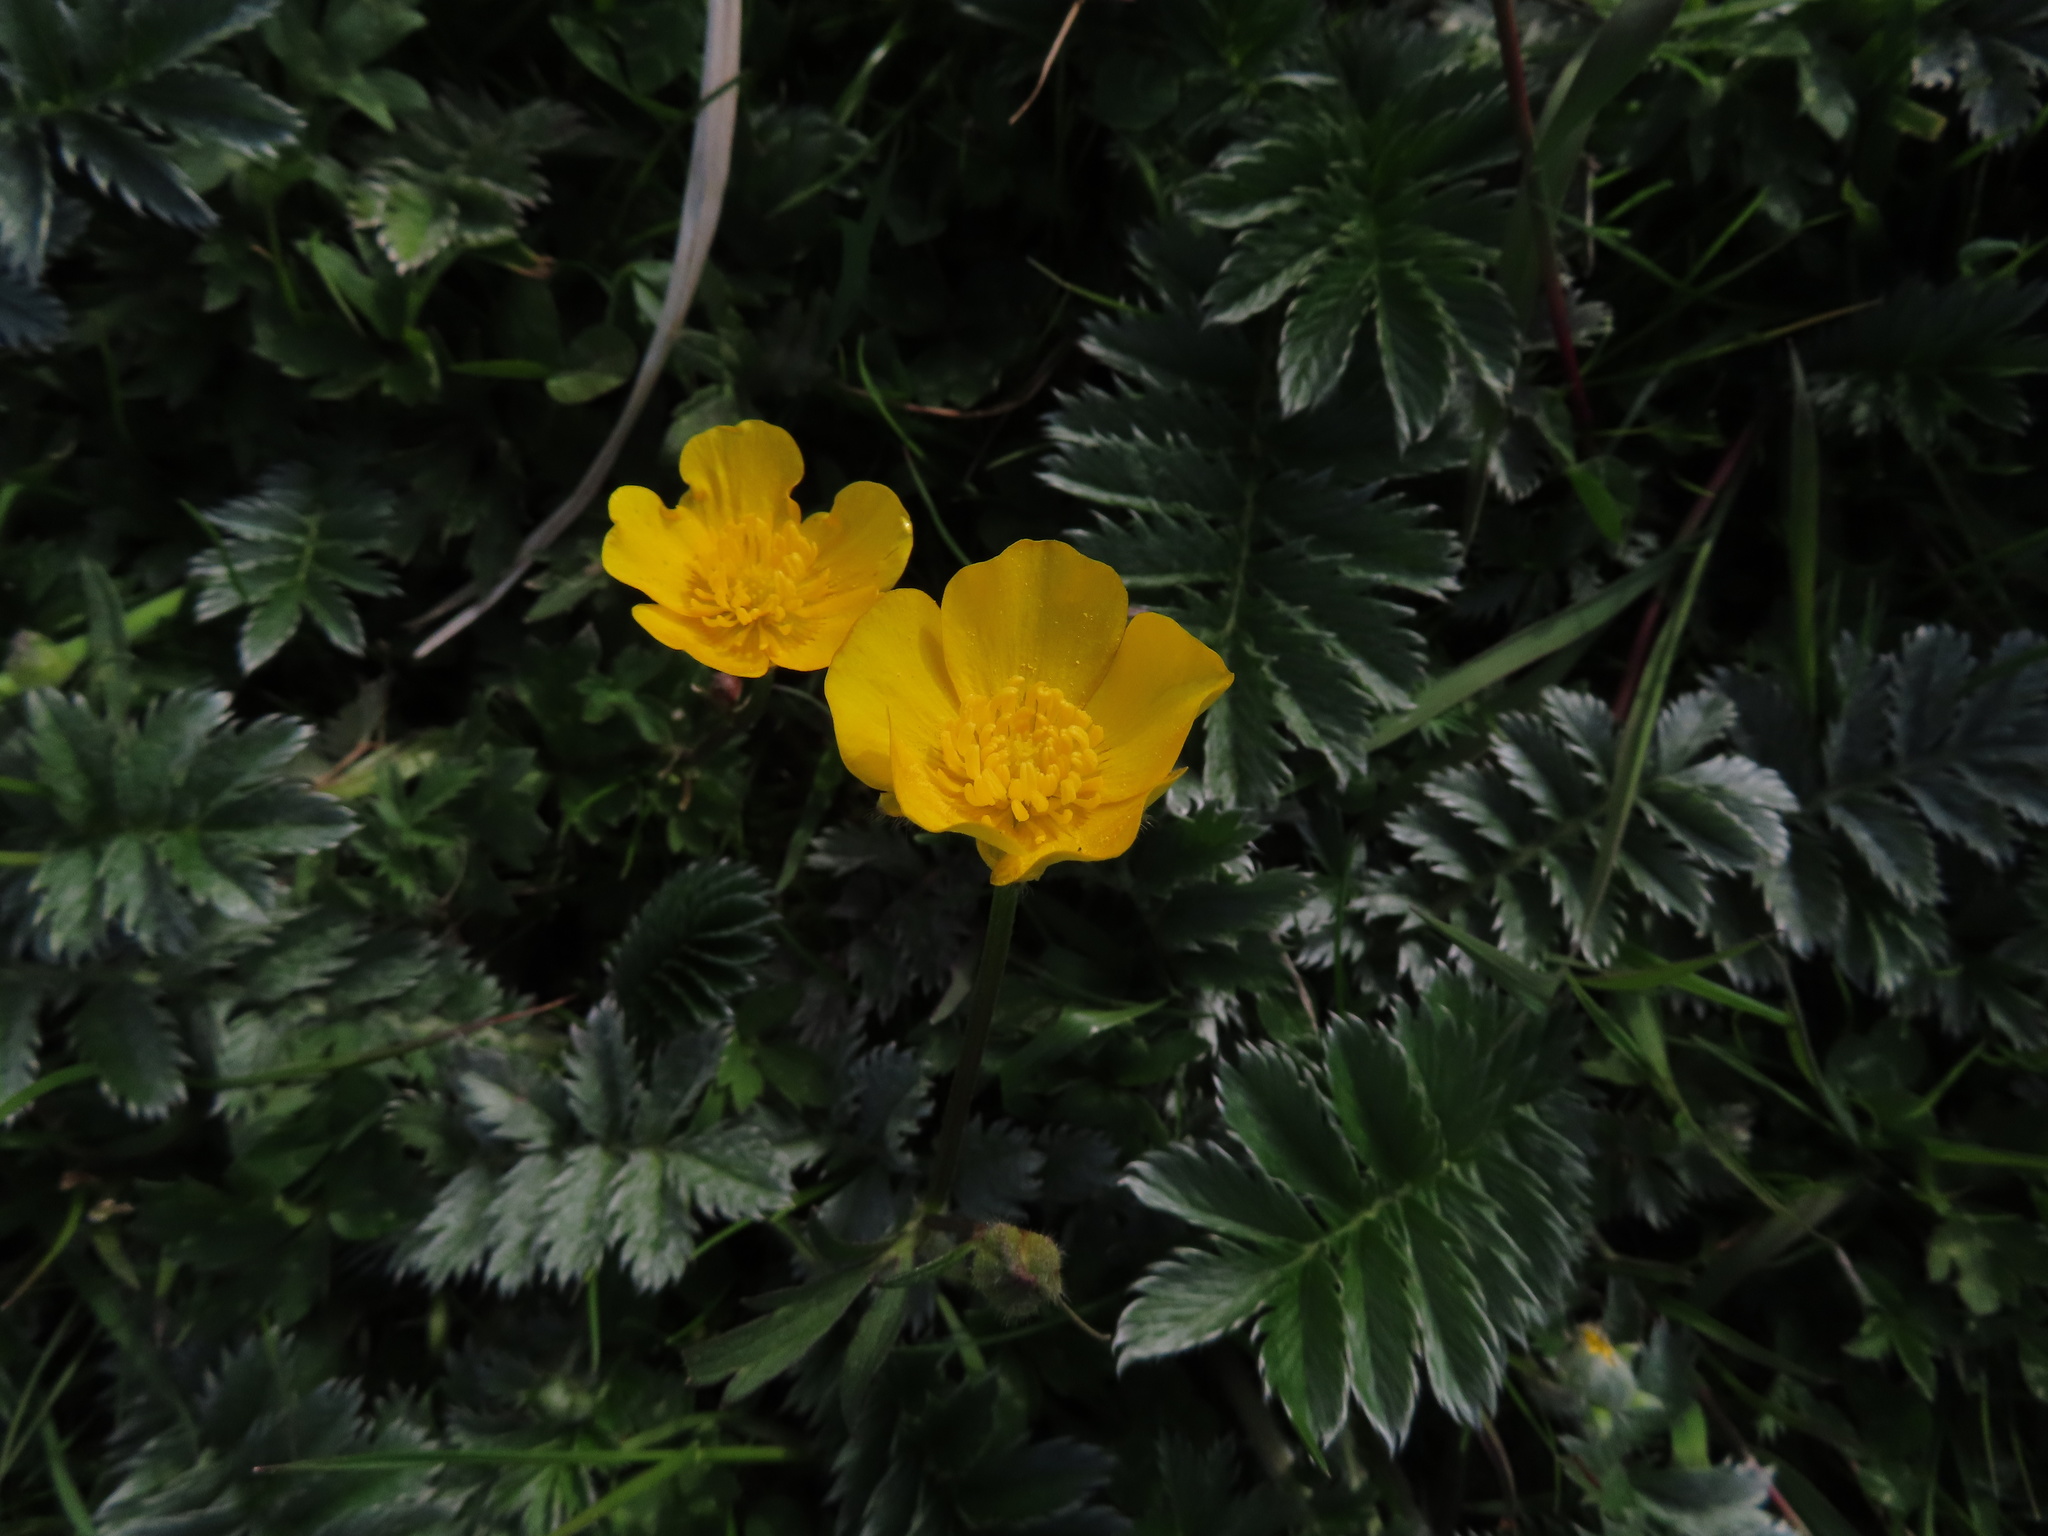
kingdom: Plantae
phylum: Tracheophyta
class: Magnoliopsida
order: Rosales
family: Rosaceae
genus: Argentina
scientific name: Argentina anserina
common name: Common silverweed
